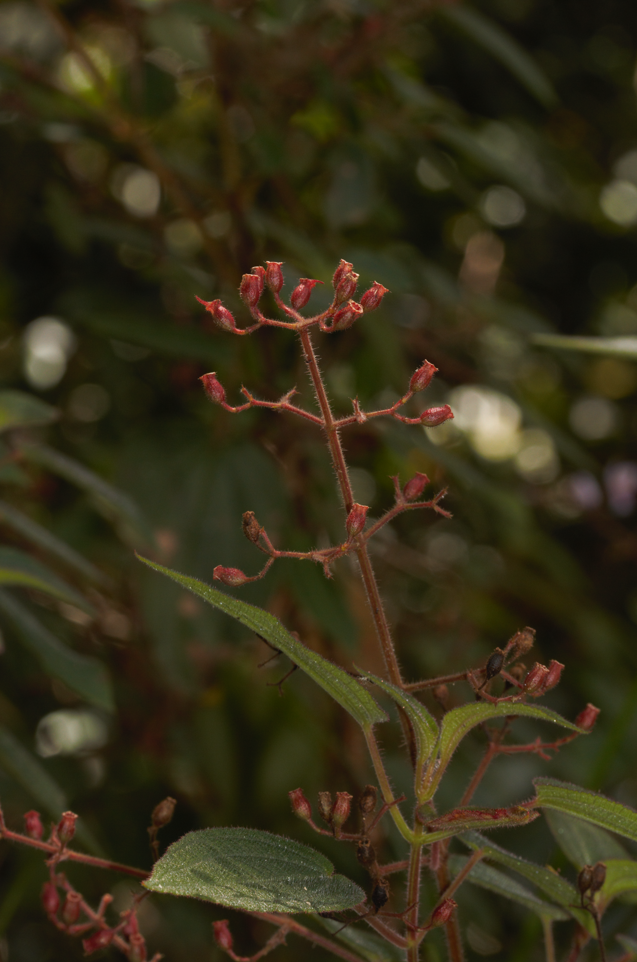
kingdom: Plantae
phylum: Tracheophyta
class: Magnoliopsida
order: Myrtales
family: Melastomataceae
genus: Ernestia
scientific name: Ernestia granvillei
